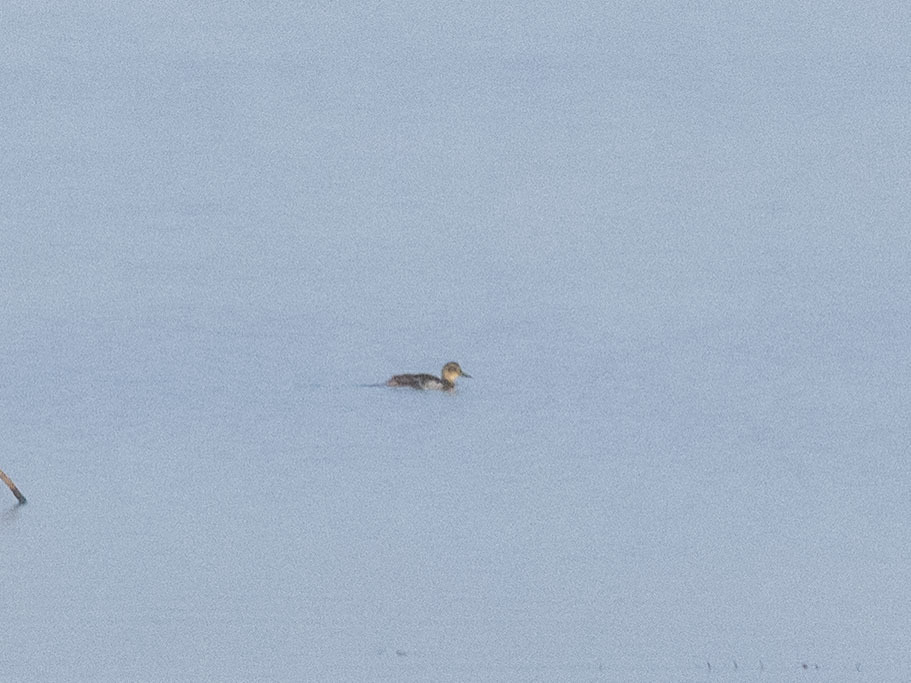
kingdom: Animalia
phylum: Chordata
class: Aves
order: Anseriformes
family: Anatidae
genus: Spatula
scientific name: Spatula querquedula
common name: Garganey
